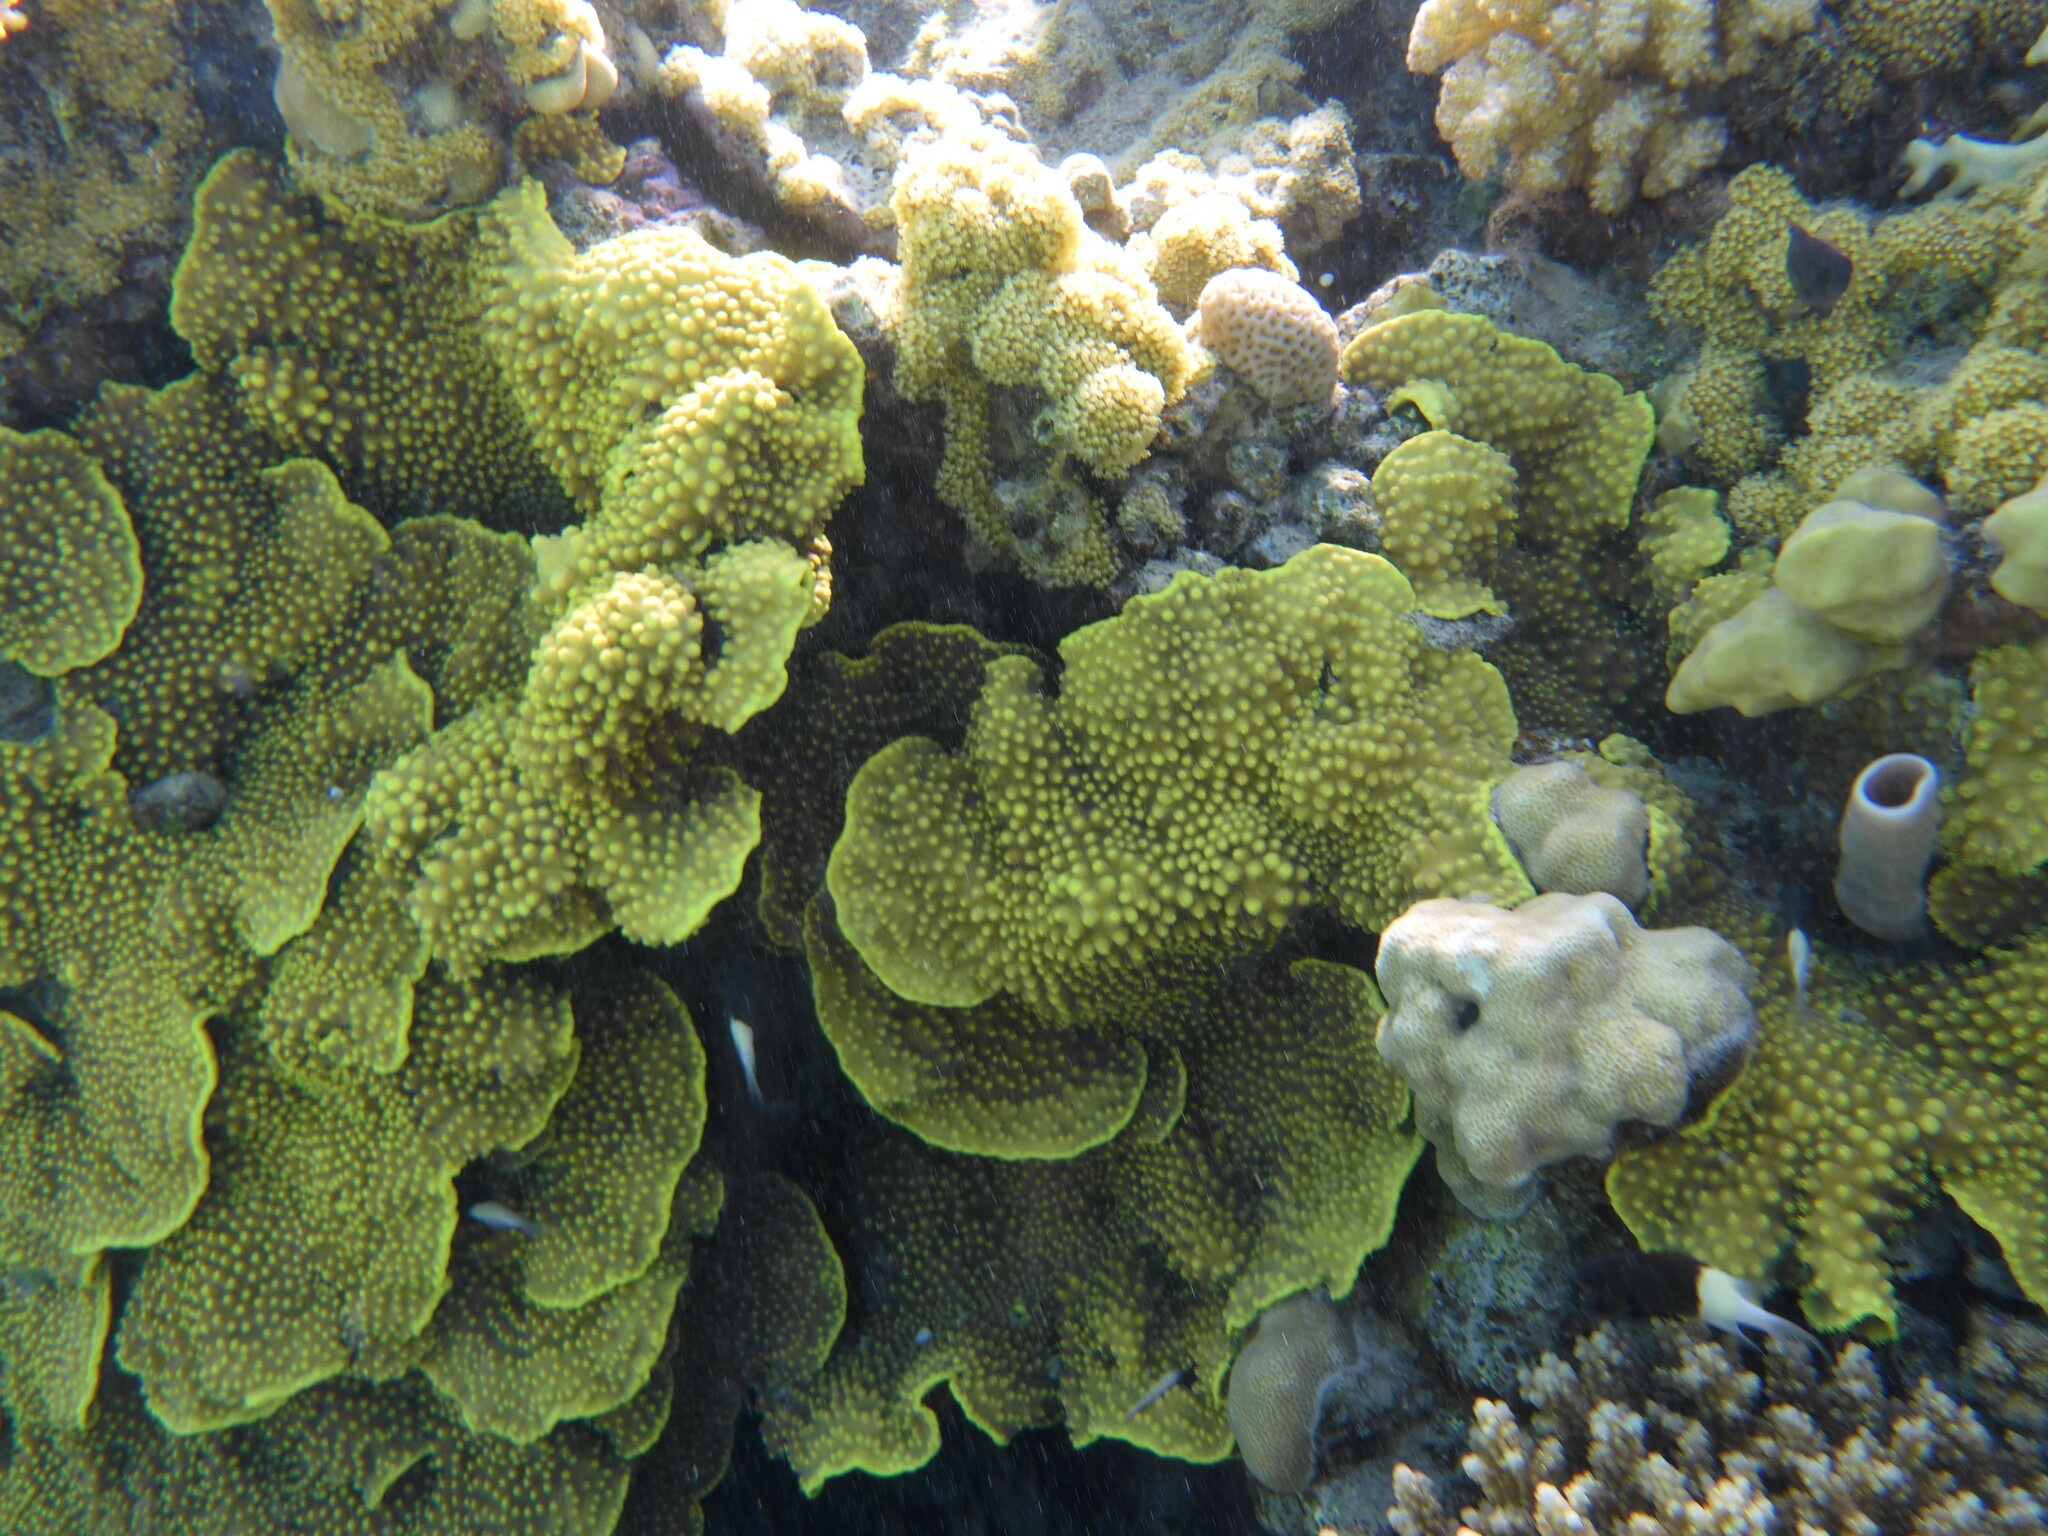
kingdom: Animalia
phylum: Cnidaria
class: Anthozoa
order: Scleractinia
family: Dendrophylliidae
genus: Turbinaria
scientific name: Turbinaria reniformis
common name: Disc coral
